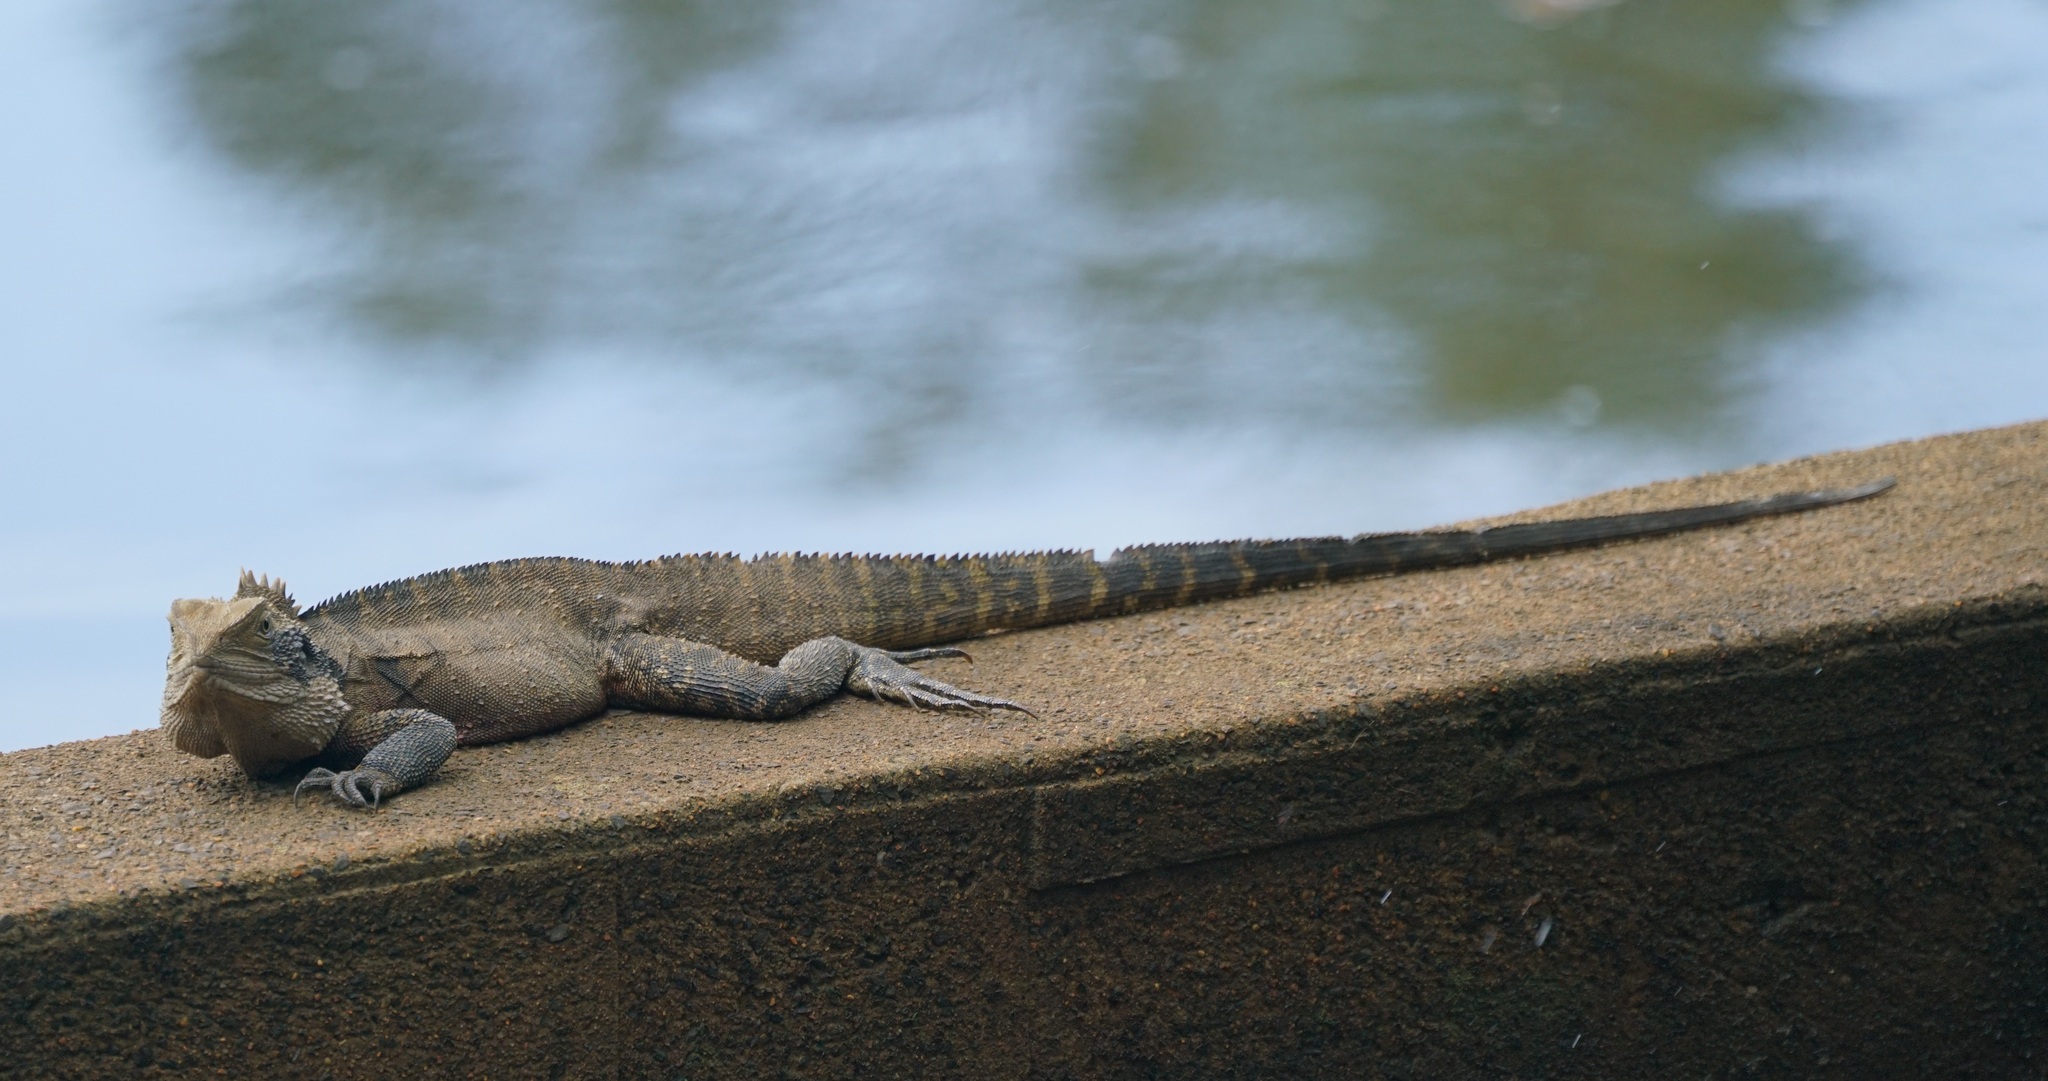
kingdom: Animalia
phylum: Chordata
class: Squamata
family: Agamidae
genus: Intellagama
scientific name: Intellagama lesueurii
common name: Eastern water dragon
